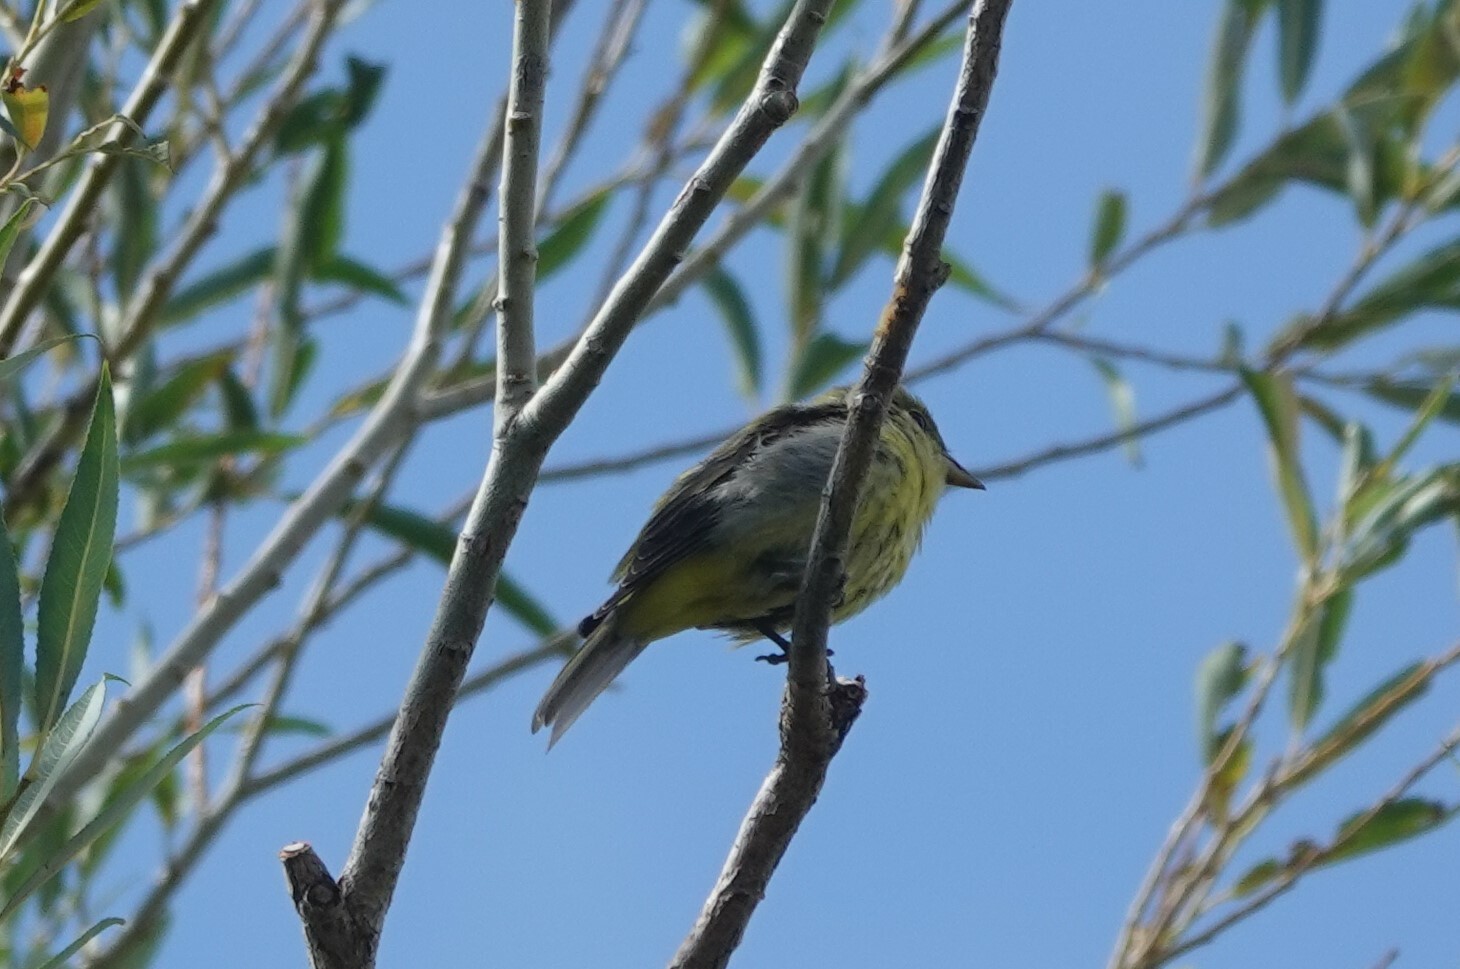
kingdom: Animalia
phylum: Chordata
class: Aves
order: Passeriformes
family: Cardinalidae
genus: Piranga
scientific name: Piranga olivacea
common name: Scarlet tanager
